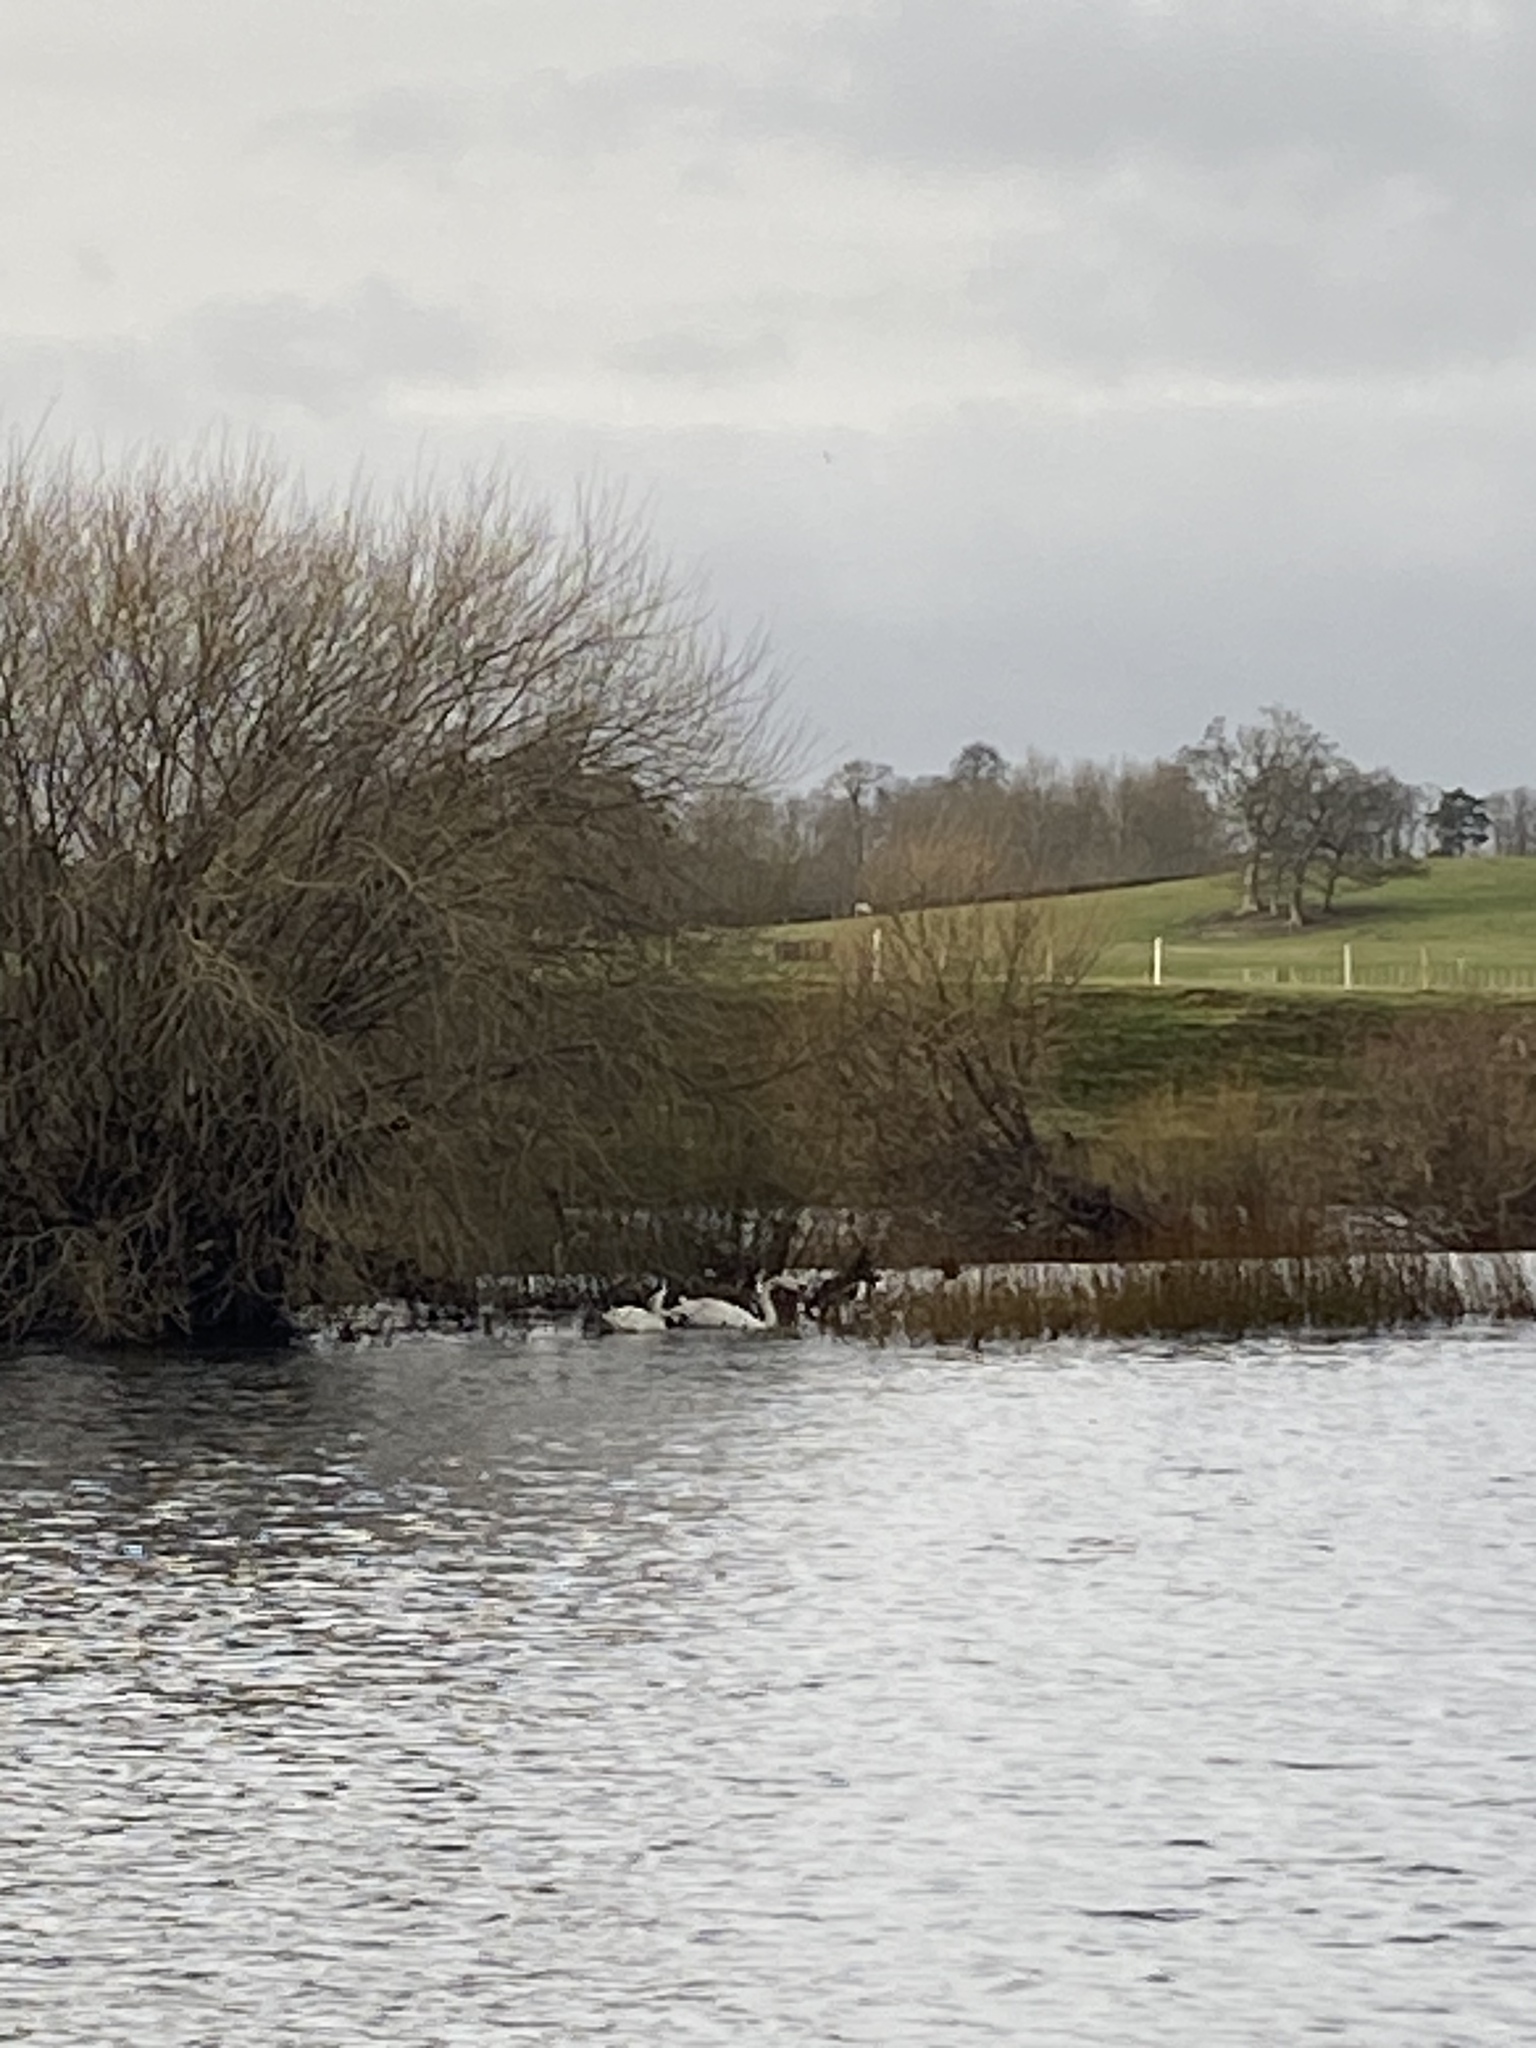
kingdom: Animalia
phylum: Chordata
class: Aves
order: Anseriformes
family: Anatidae
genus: Cygnus
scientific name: Cygnus olor
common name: Mute swan
